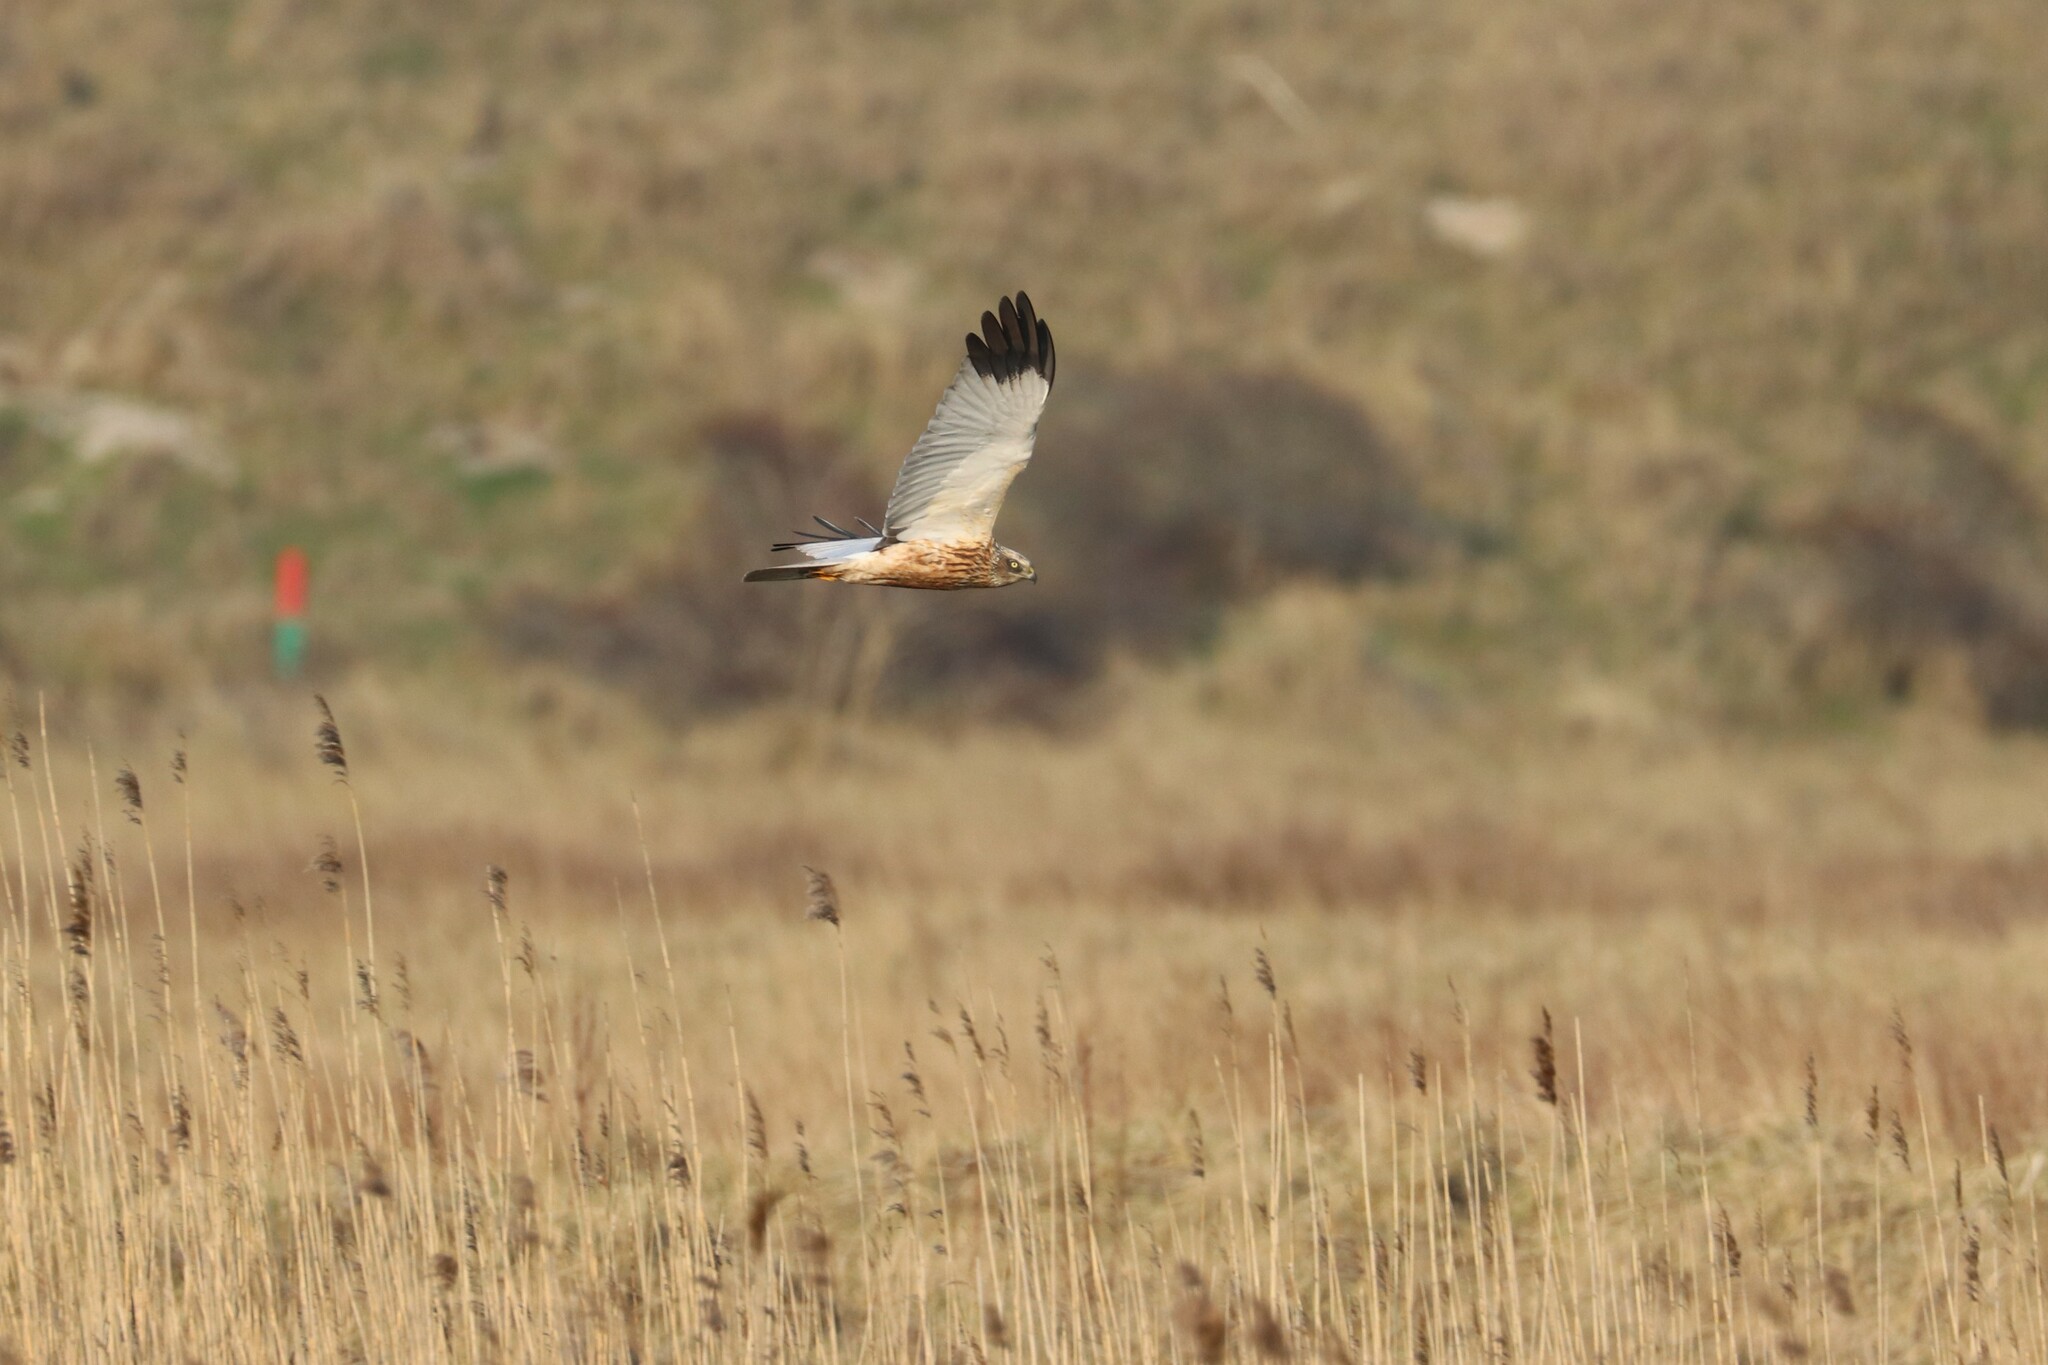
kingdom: Animalia
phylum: Chordata
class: Aves
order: Accipitriformes
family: Accipitridae
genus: Circus
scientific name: Circus aeruginosus
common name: Western marsh harrier
